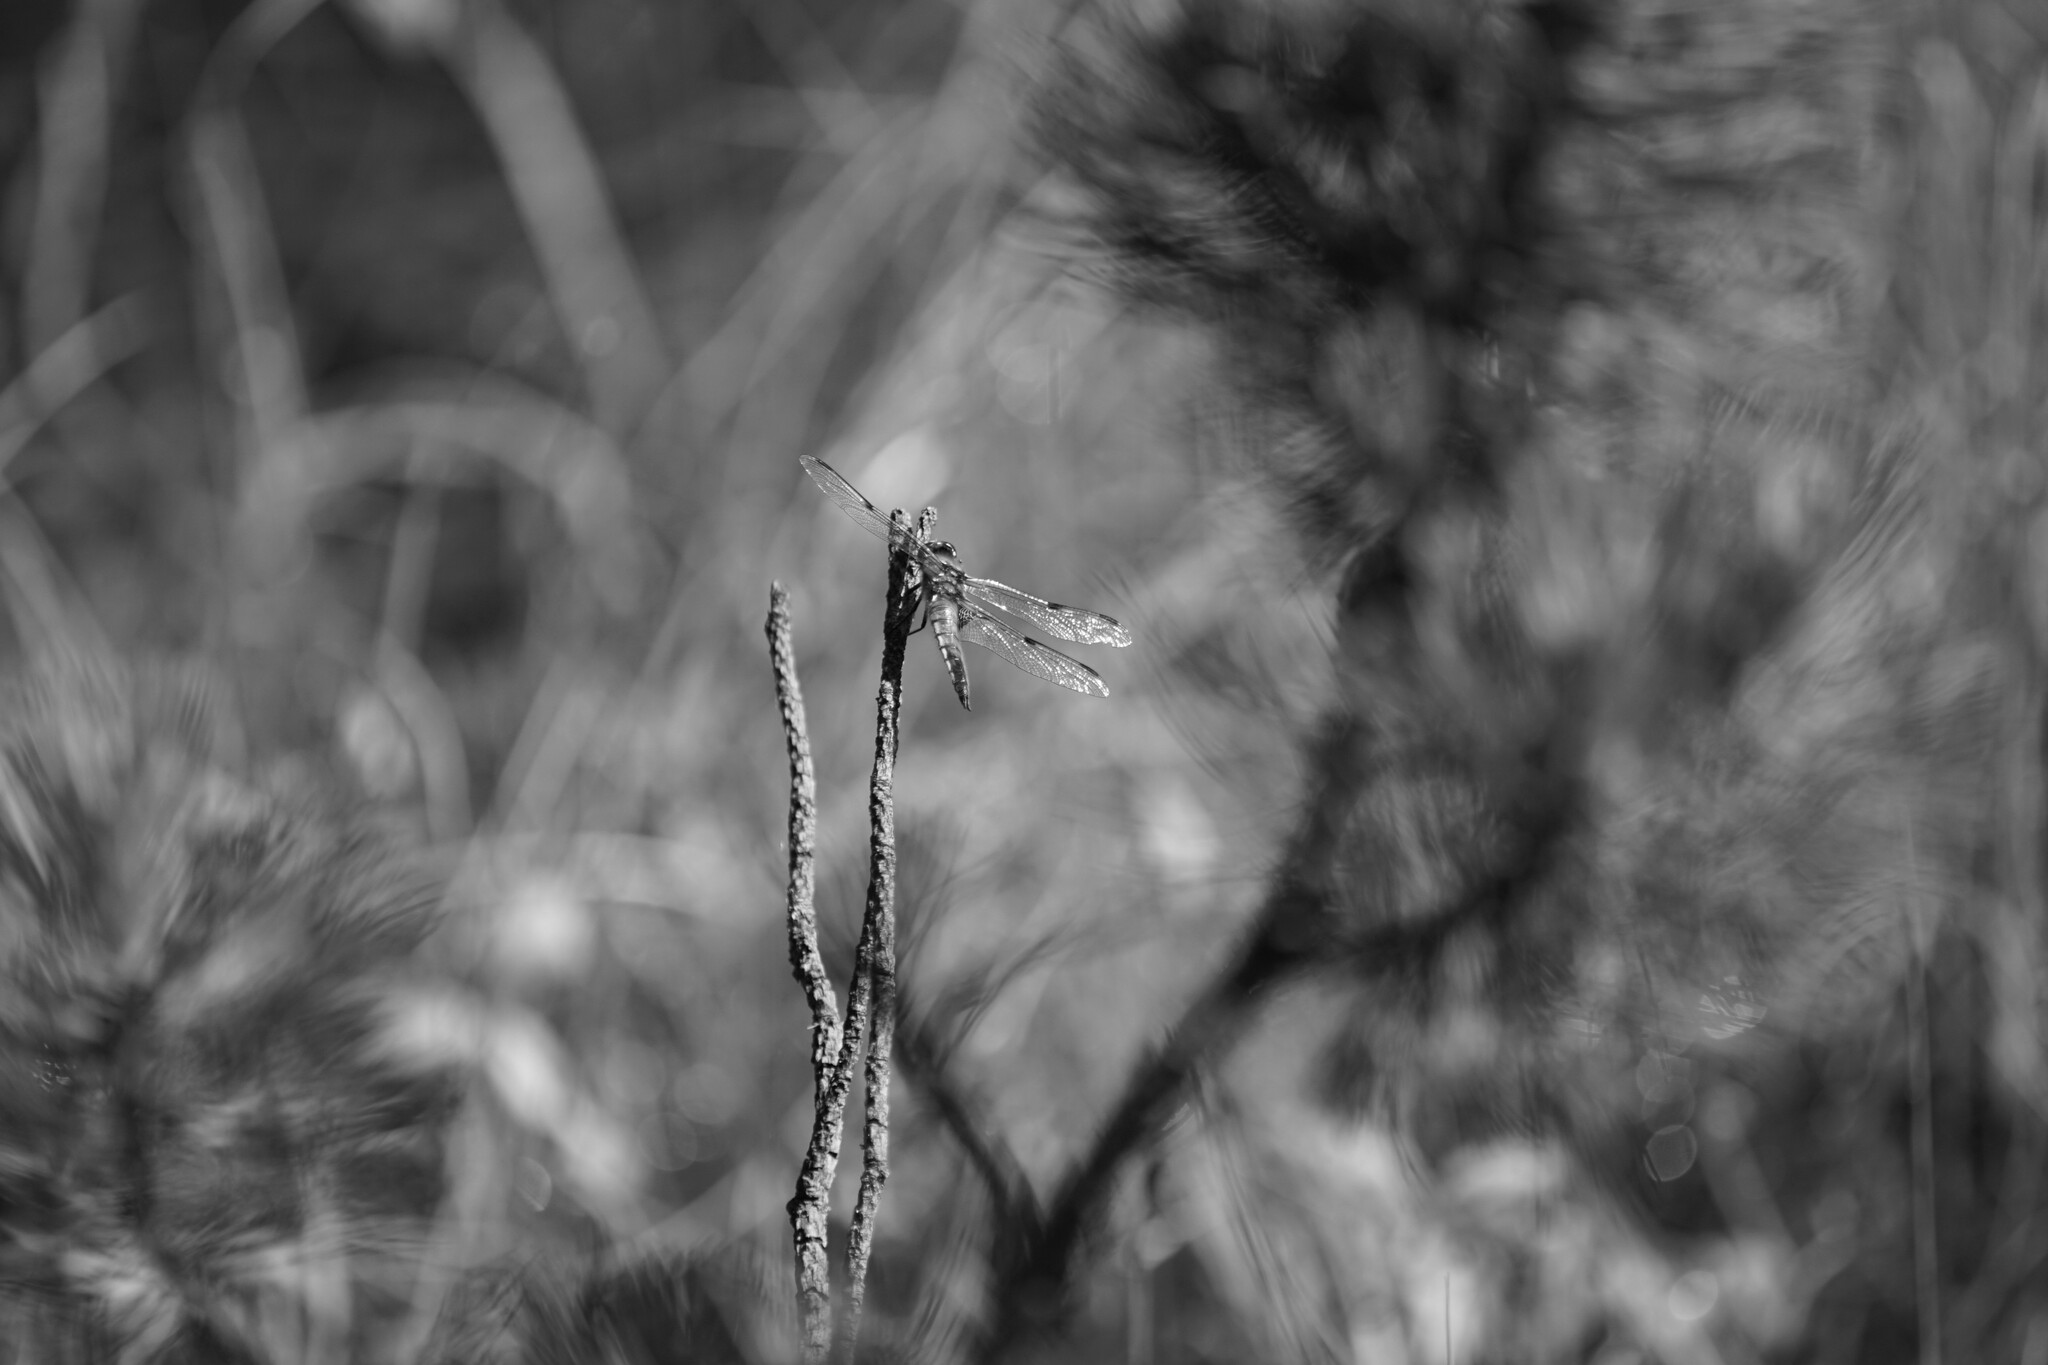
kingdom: Animalia
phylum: Arthropoda
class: Insecta
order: Odonata
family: Libellulidae
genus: Libellula
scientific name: Libellula quadrimaculata
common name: Four-spotted chaser
